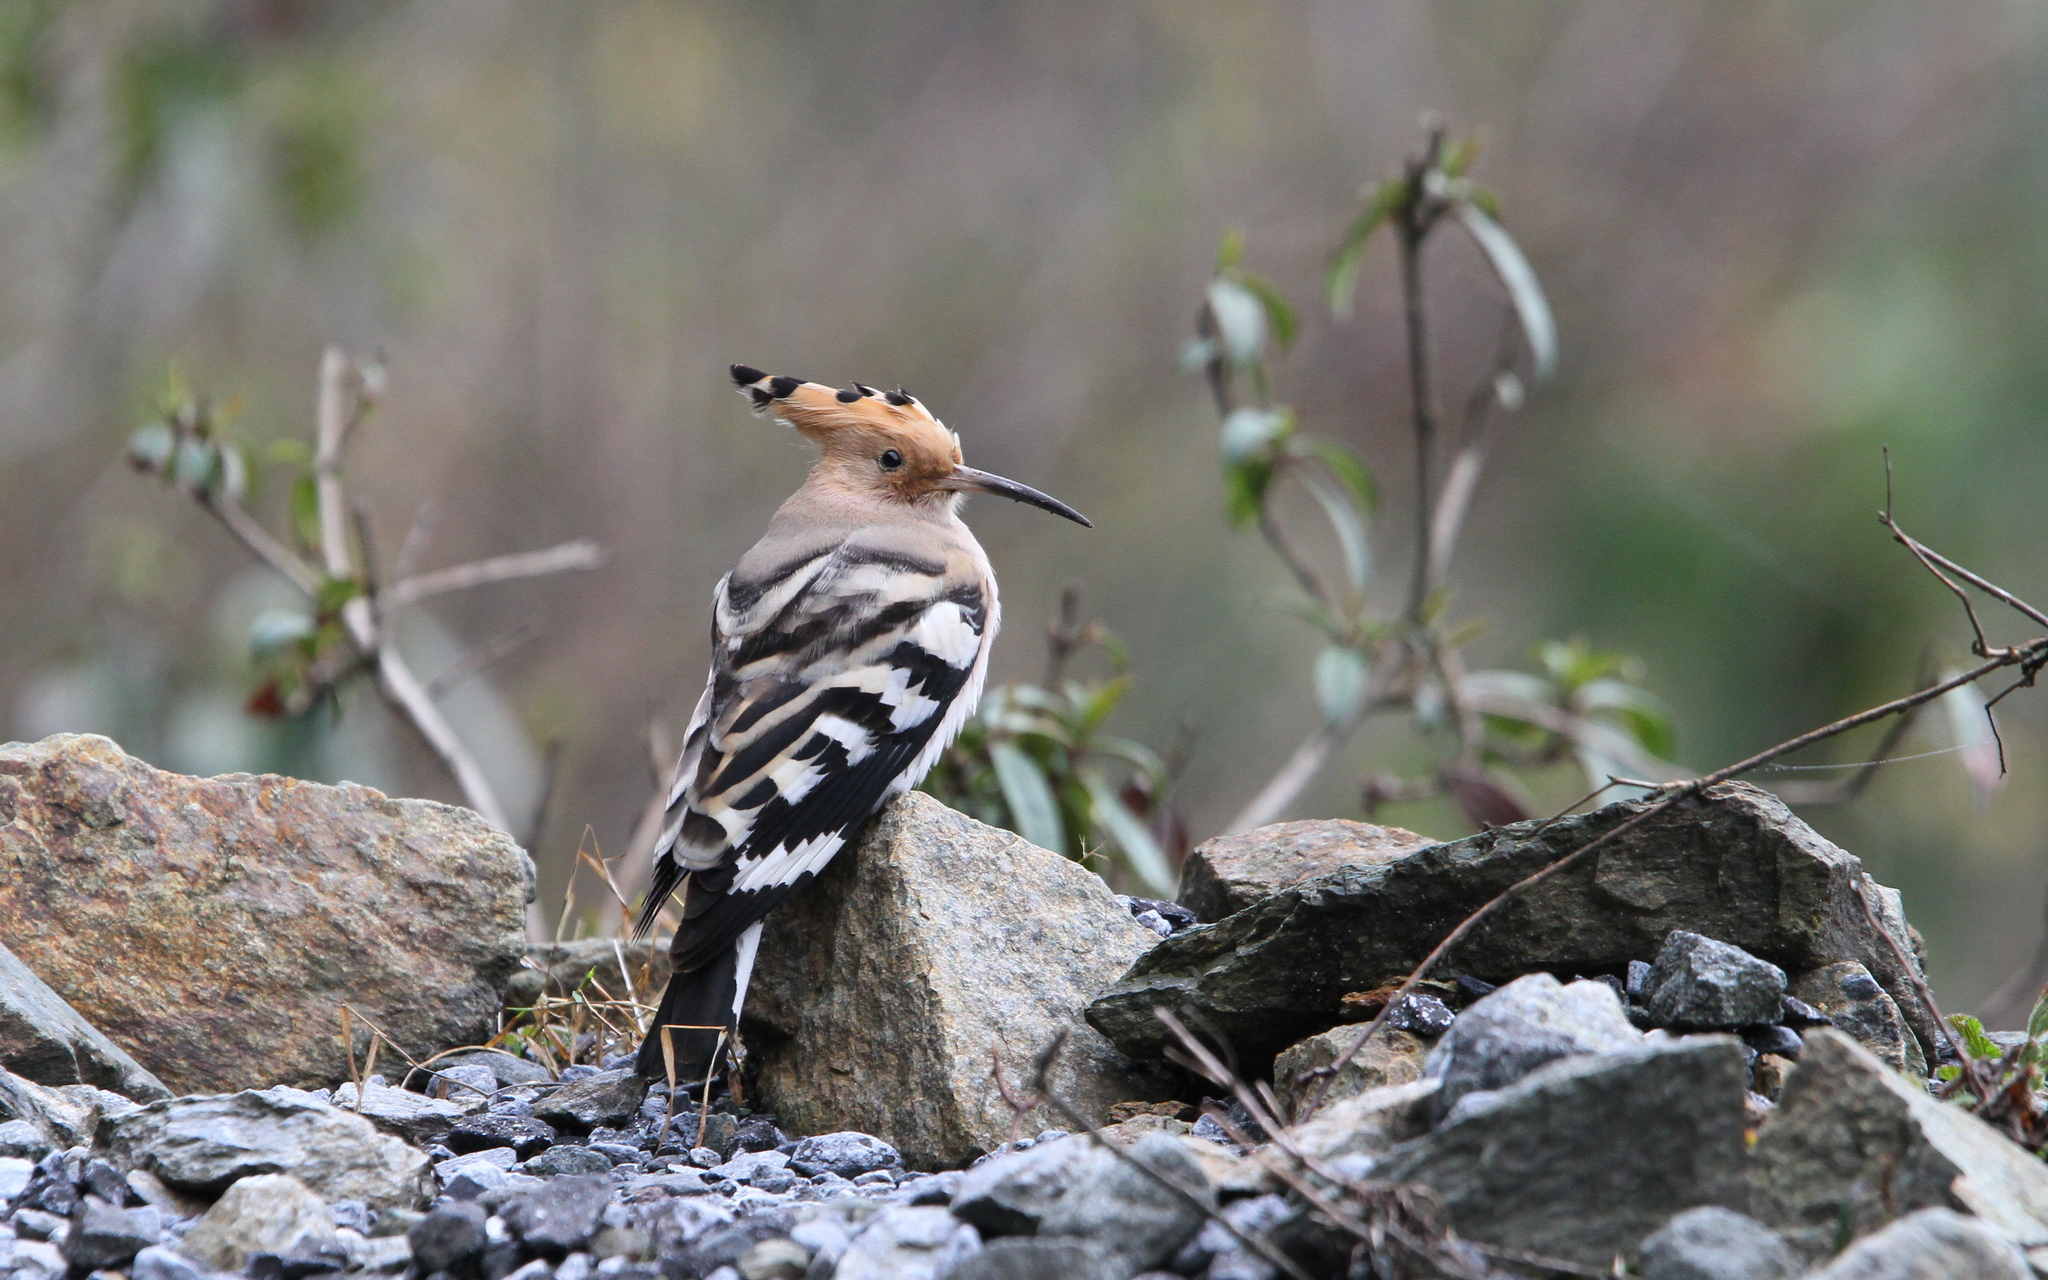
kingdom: Animalia
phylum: Chordata
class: Aves
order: Bucerotiformes
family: Upupidae
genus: Upupa
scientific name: Upupa epops
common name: Eurasian hoopoe
